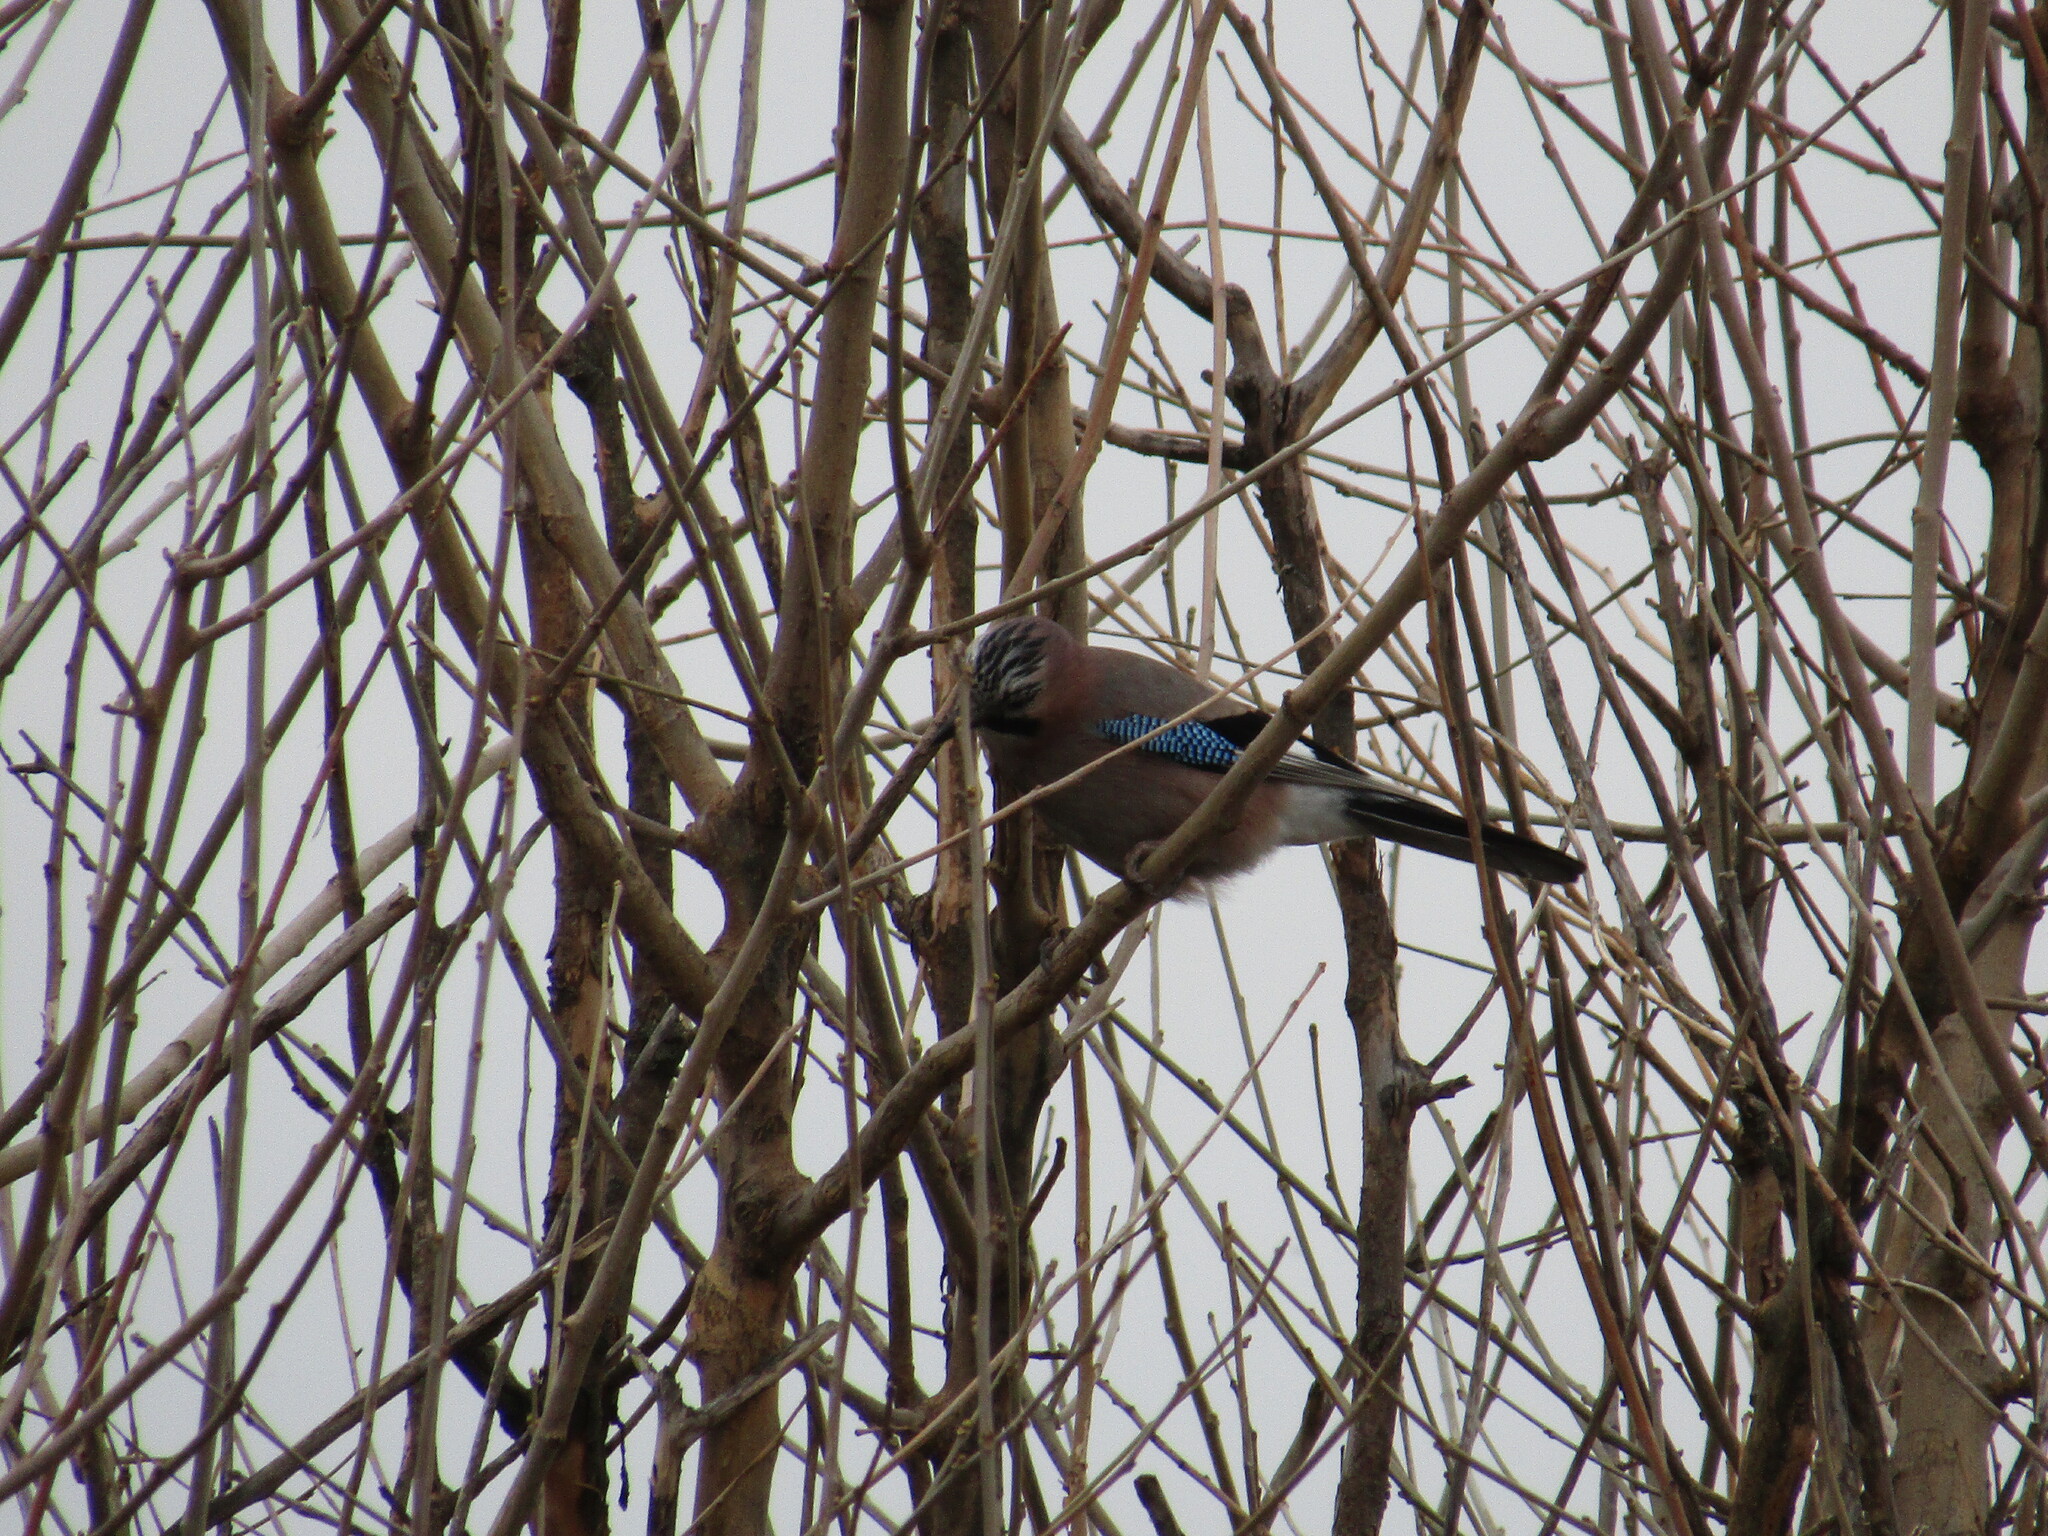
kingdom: Animalia
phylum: Chordata
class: Aves
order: Passeriformes
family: Corvidae
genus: Garrulus
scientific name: Garrulus glandarius
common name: Eurasian jay
